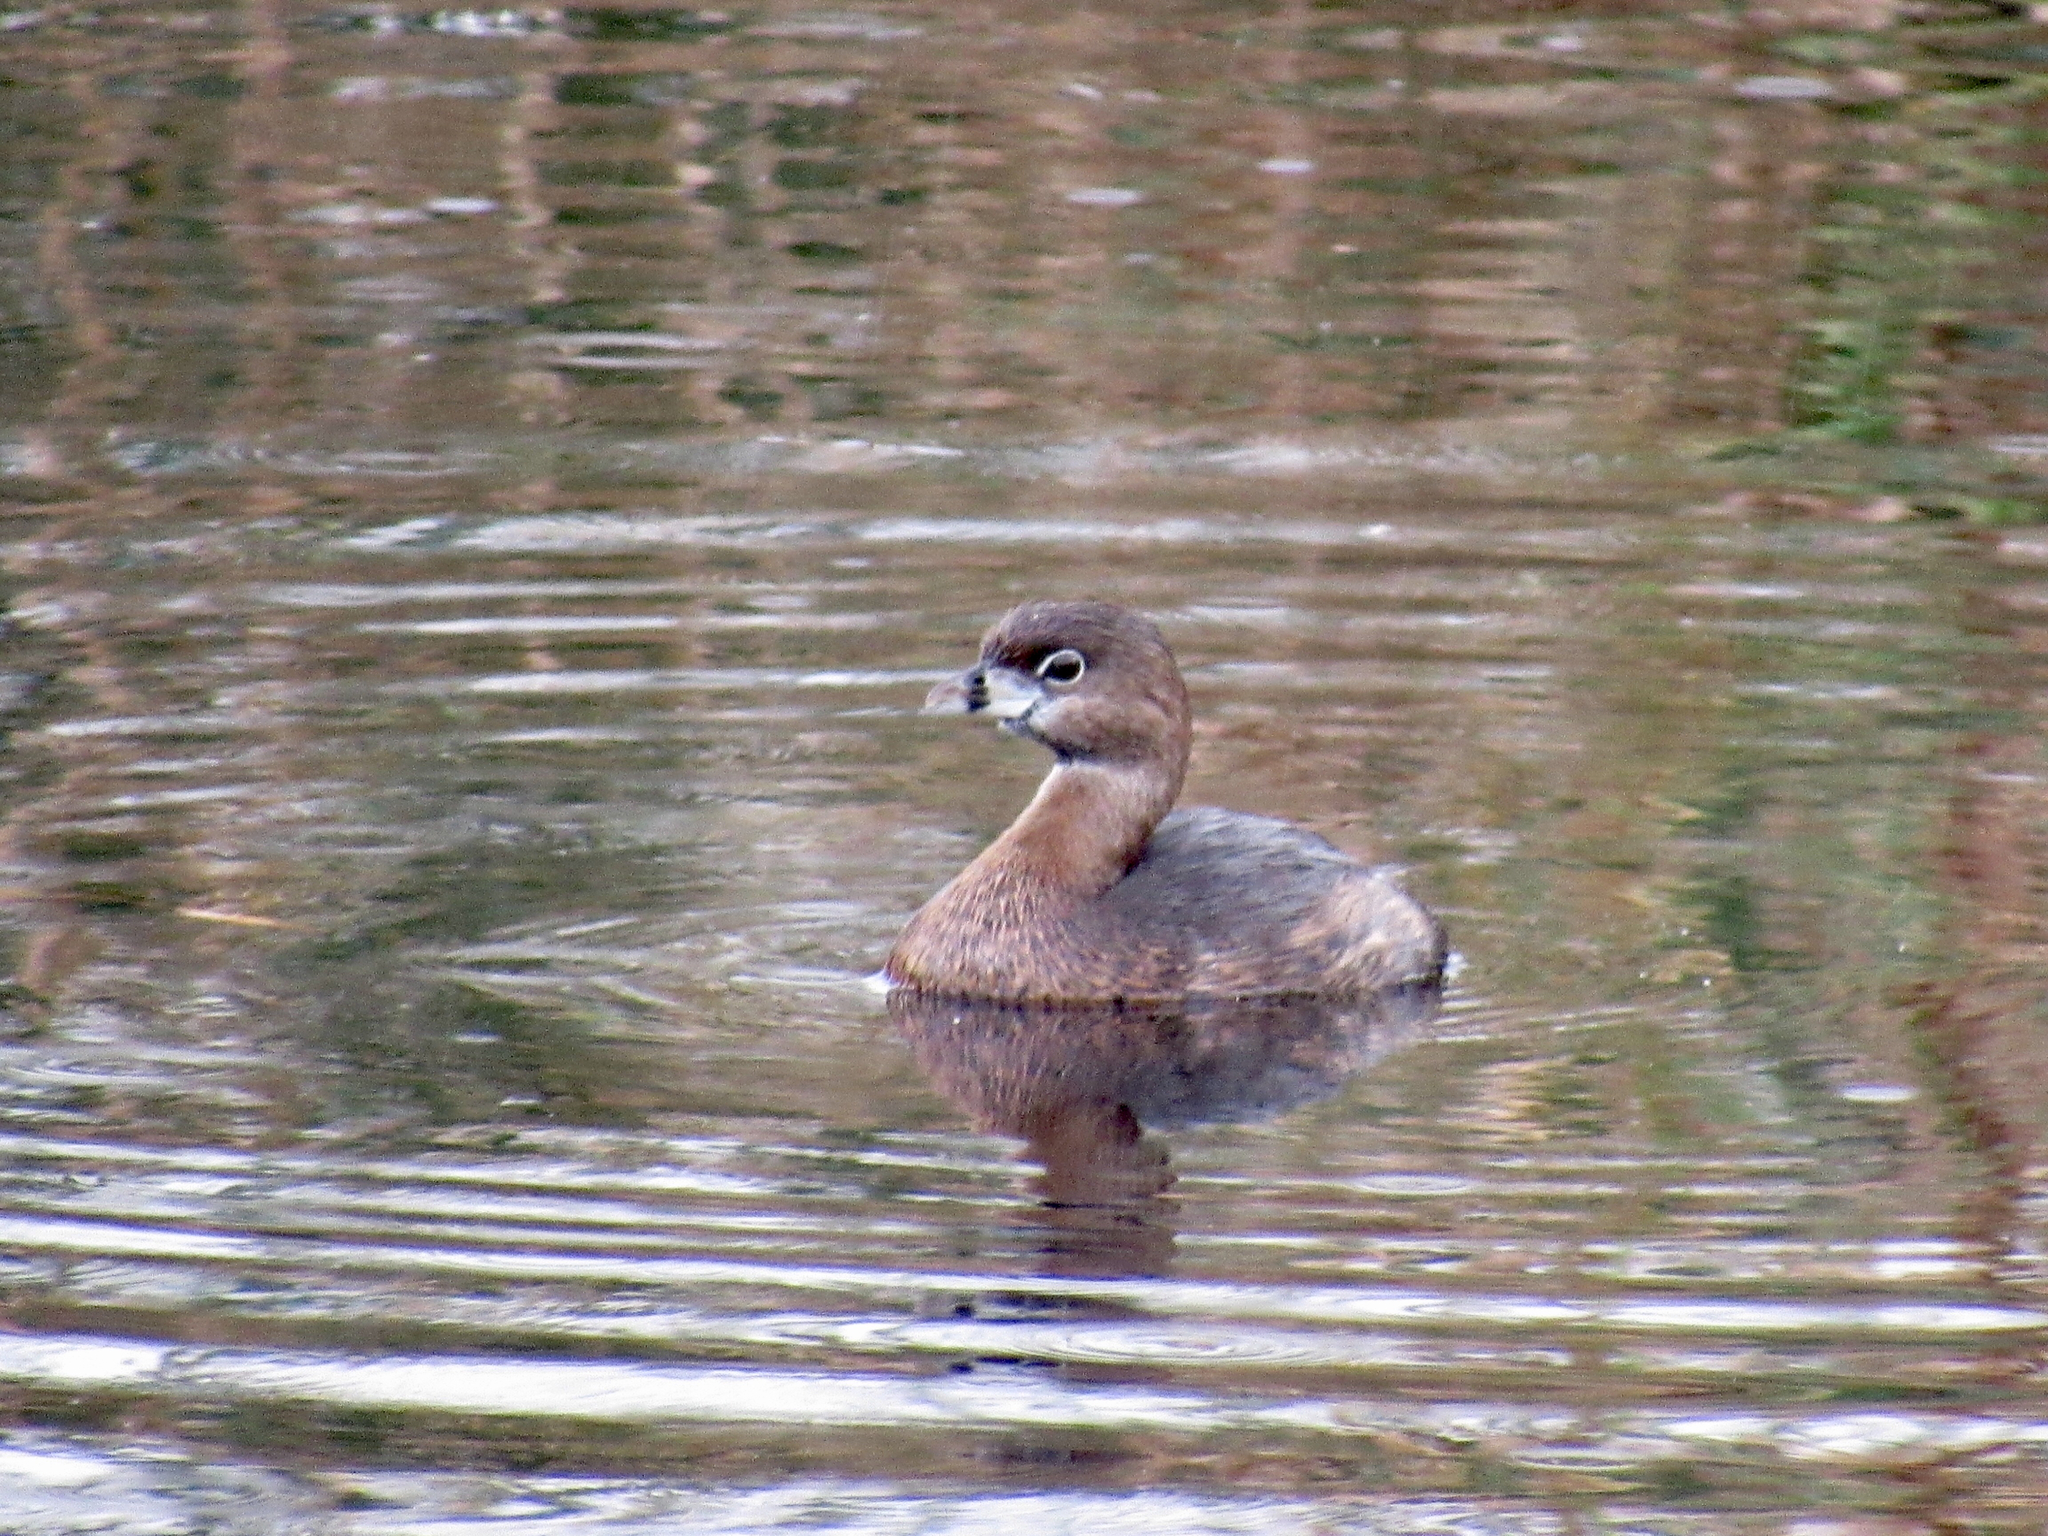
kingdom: Animalia
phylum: Chordata
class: Aves
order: Podicipediformes
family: Podicipedidae
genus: Podilymbus
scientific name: Podilymbus podiceps
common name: Pied-billed grebe
